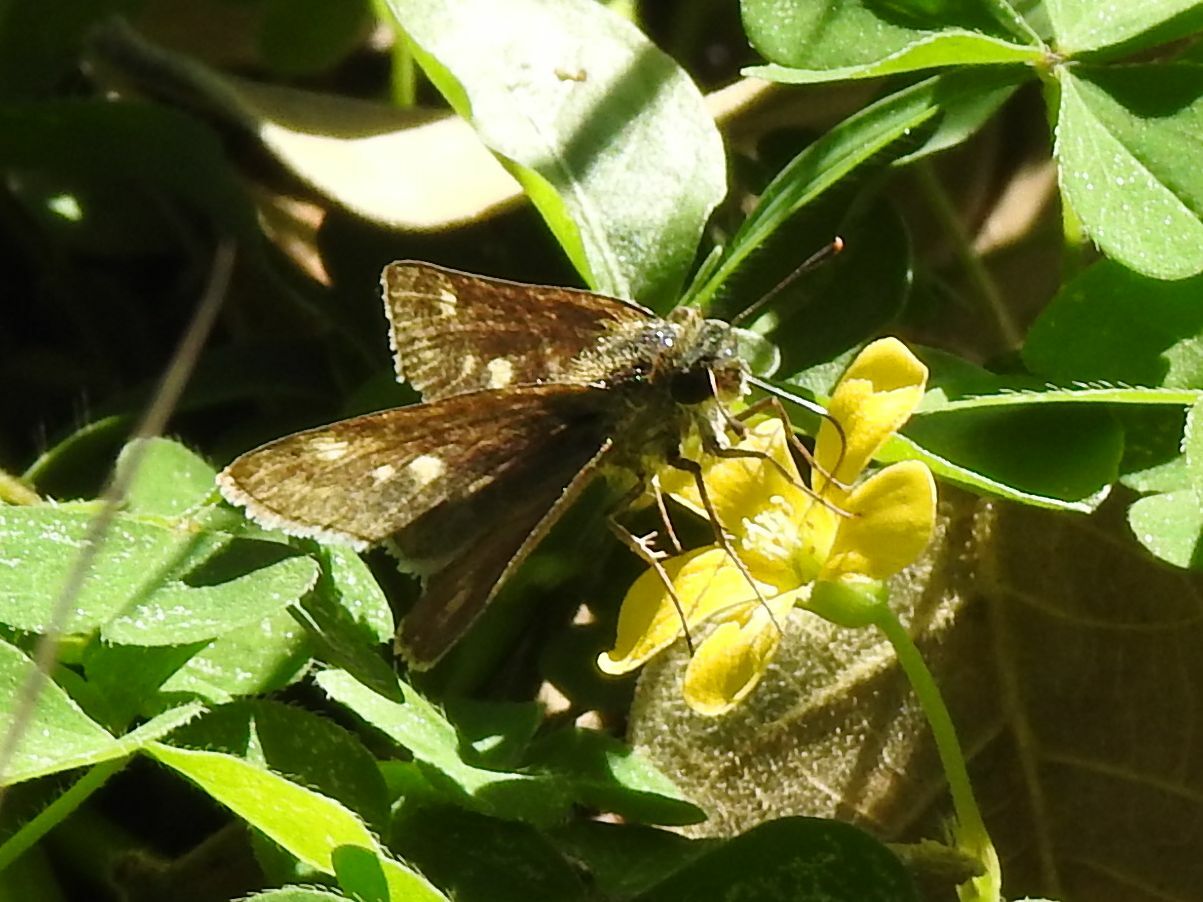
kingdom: Animalia
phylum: Arthropoda
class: Insecta
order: Hymenoptera
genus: Afrogenes
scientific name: Afrogenes
